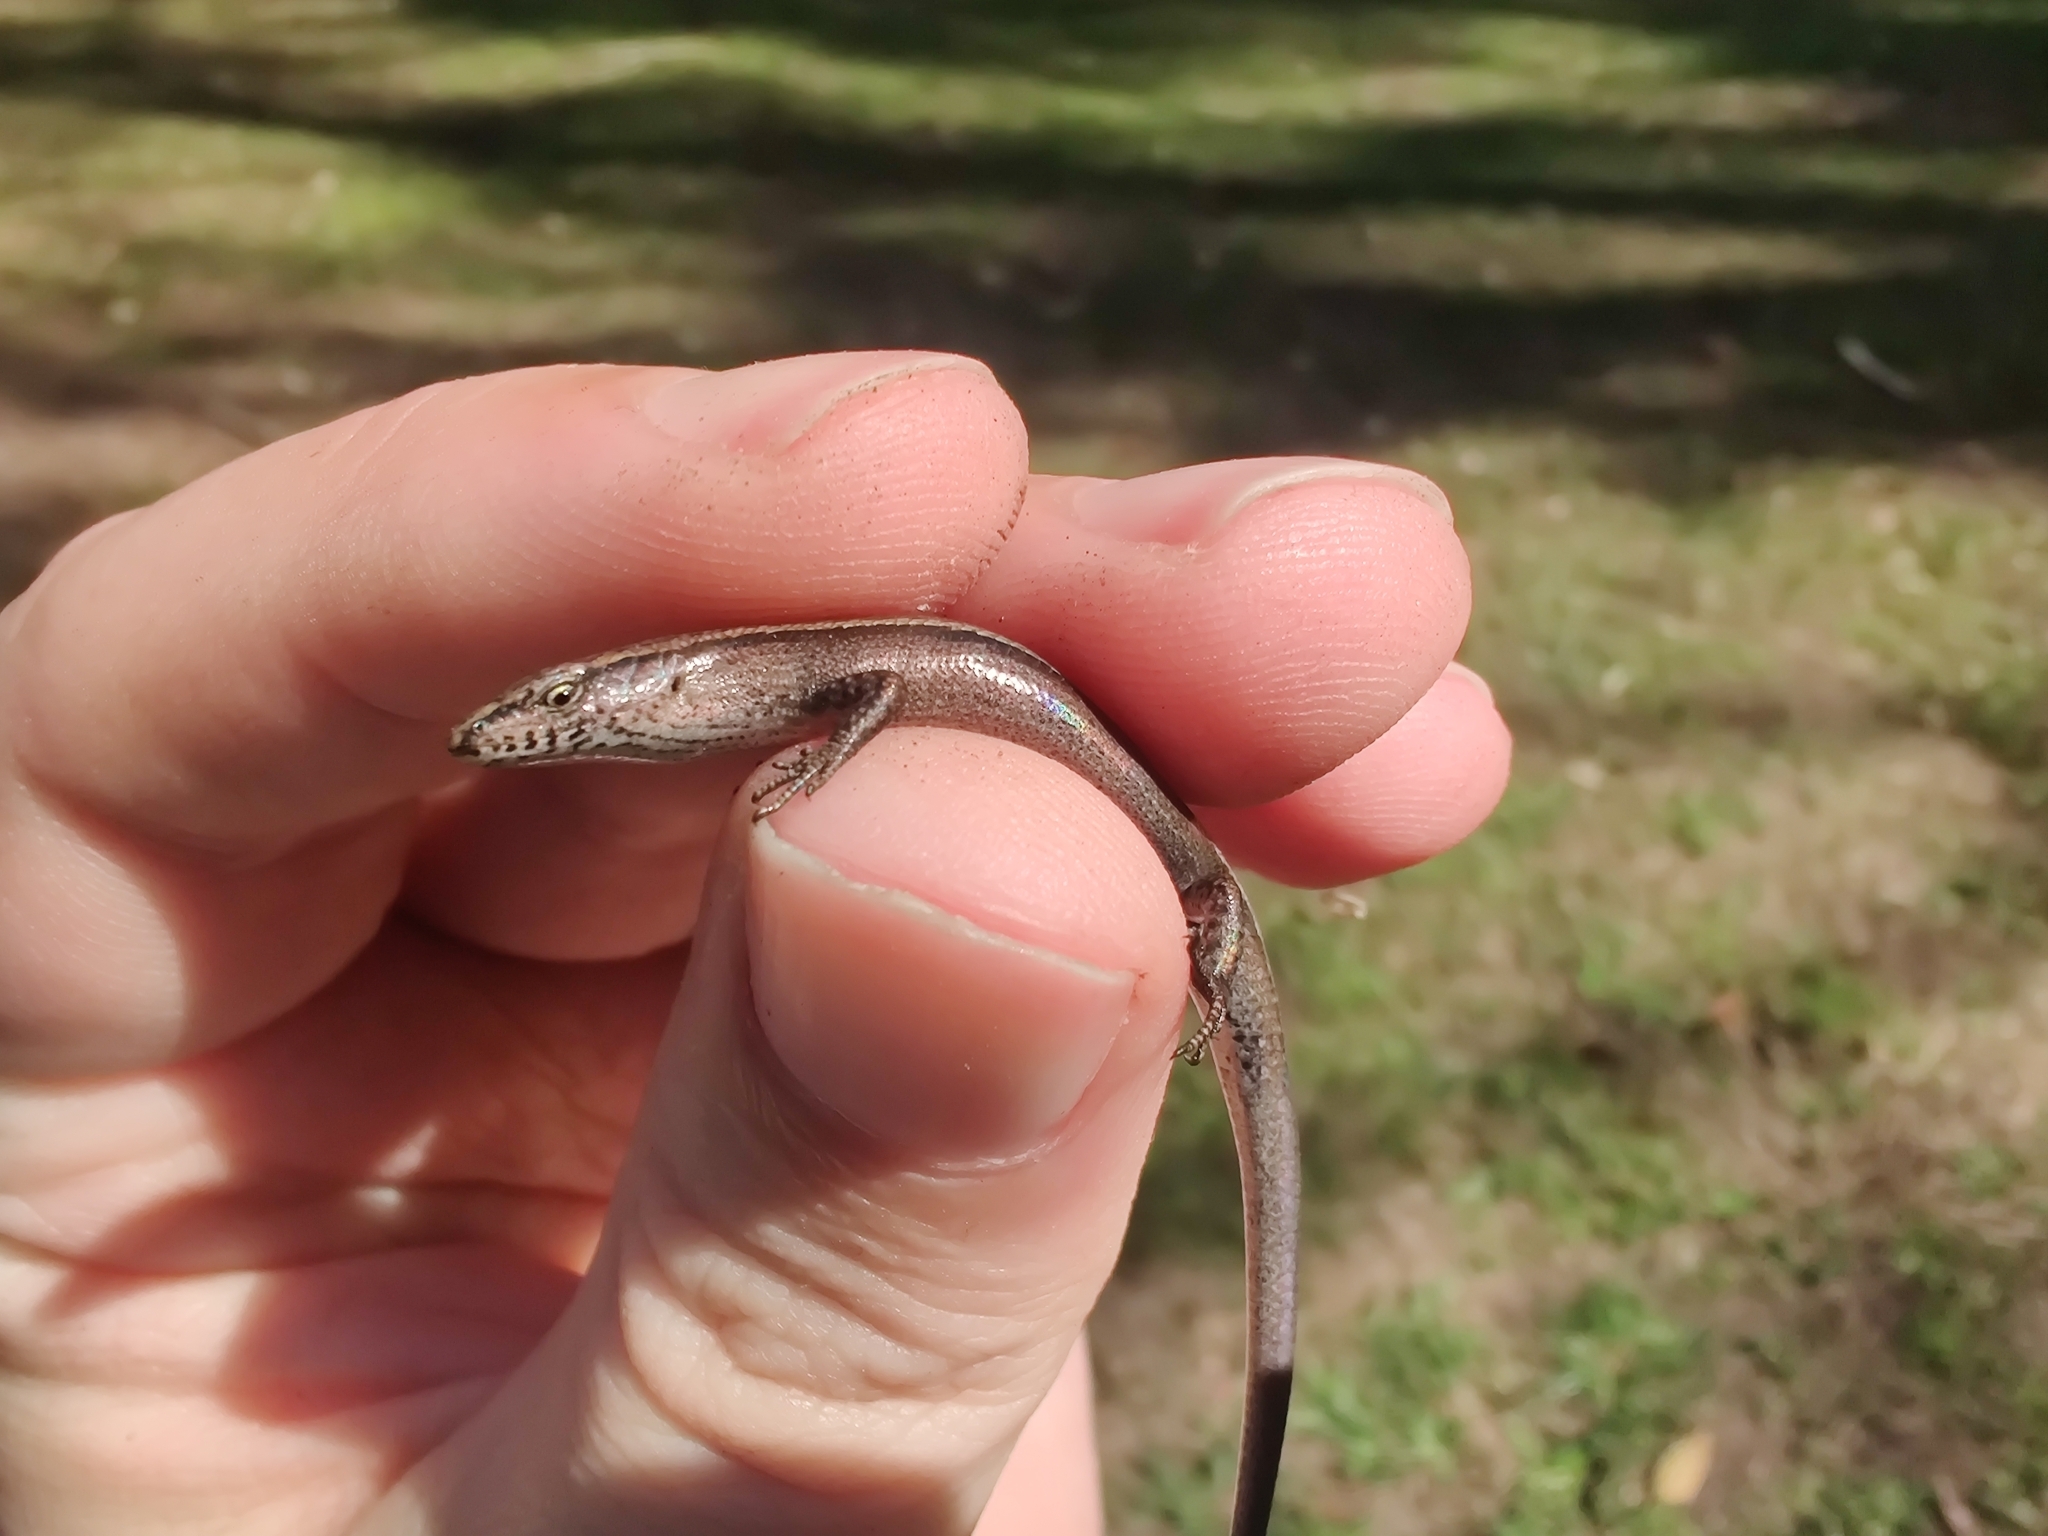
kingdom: Animalia
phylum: Chordata
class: Squamata
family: Scincidae
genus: Lampropholis
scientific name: Lampropholis delicata
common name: Plague skink
